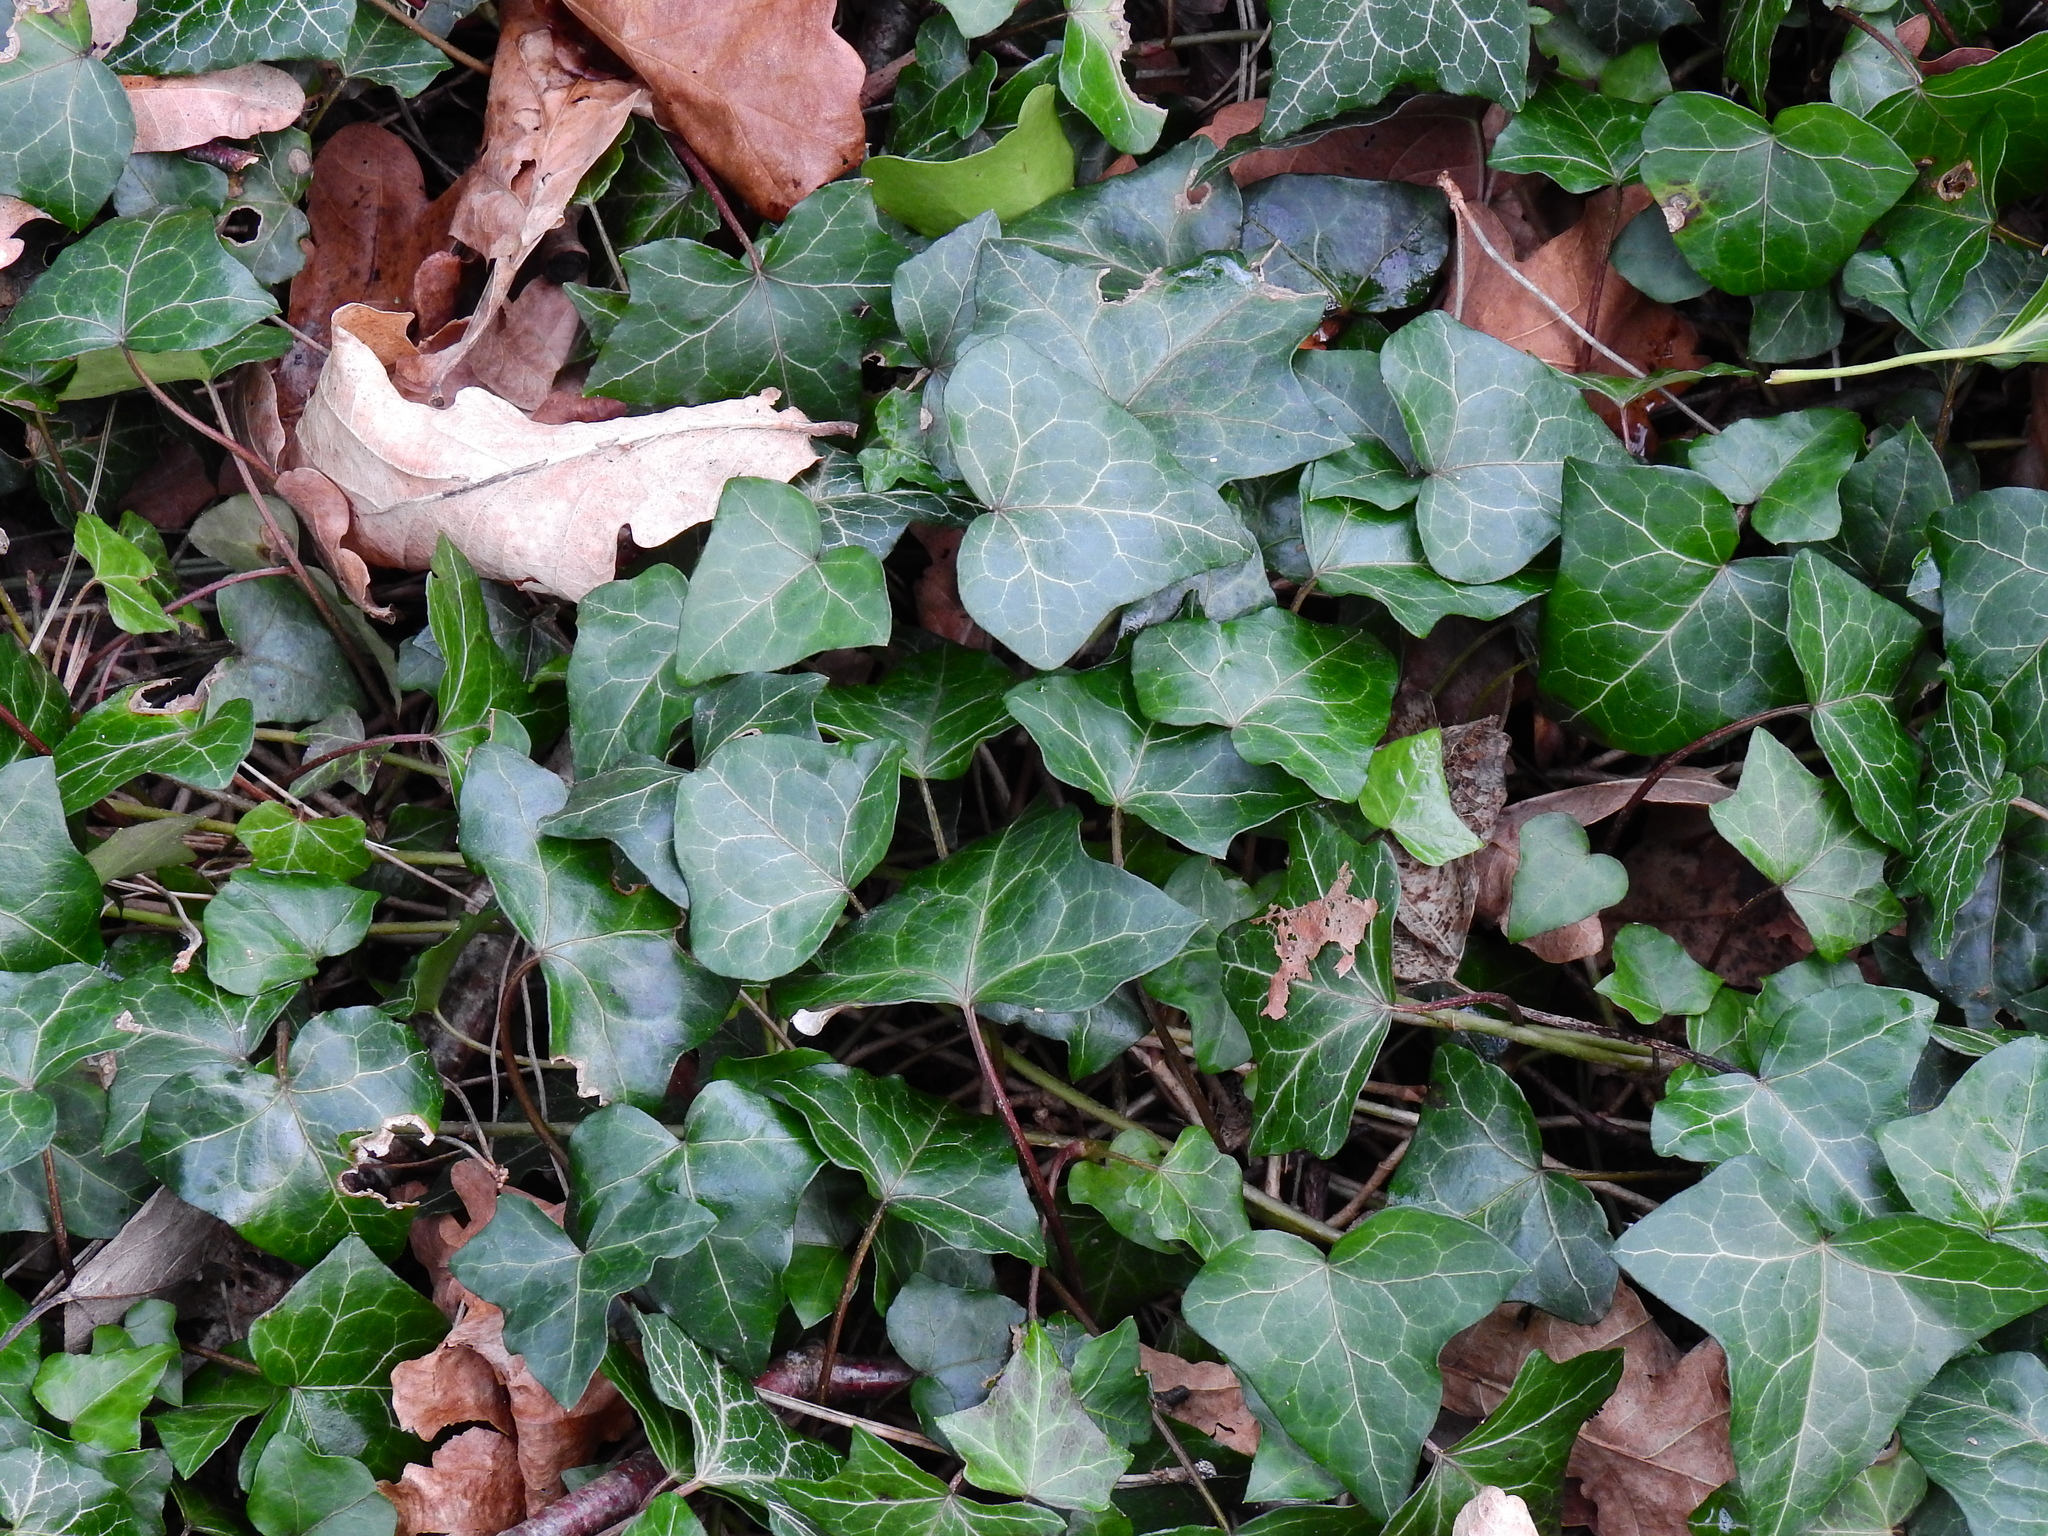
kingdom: Plantae
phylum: Tracheophyta
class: Magnoliopsida
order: Apiales
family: Araliaceae
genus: Hedera
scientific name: Hedera helix
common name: Ivy
